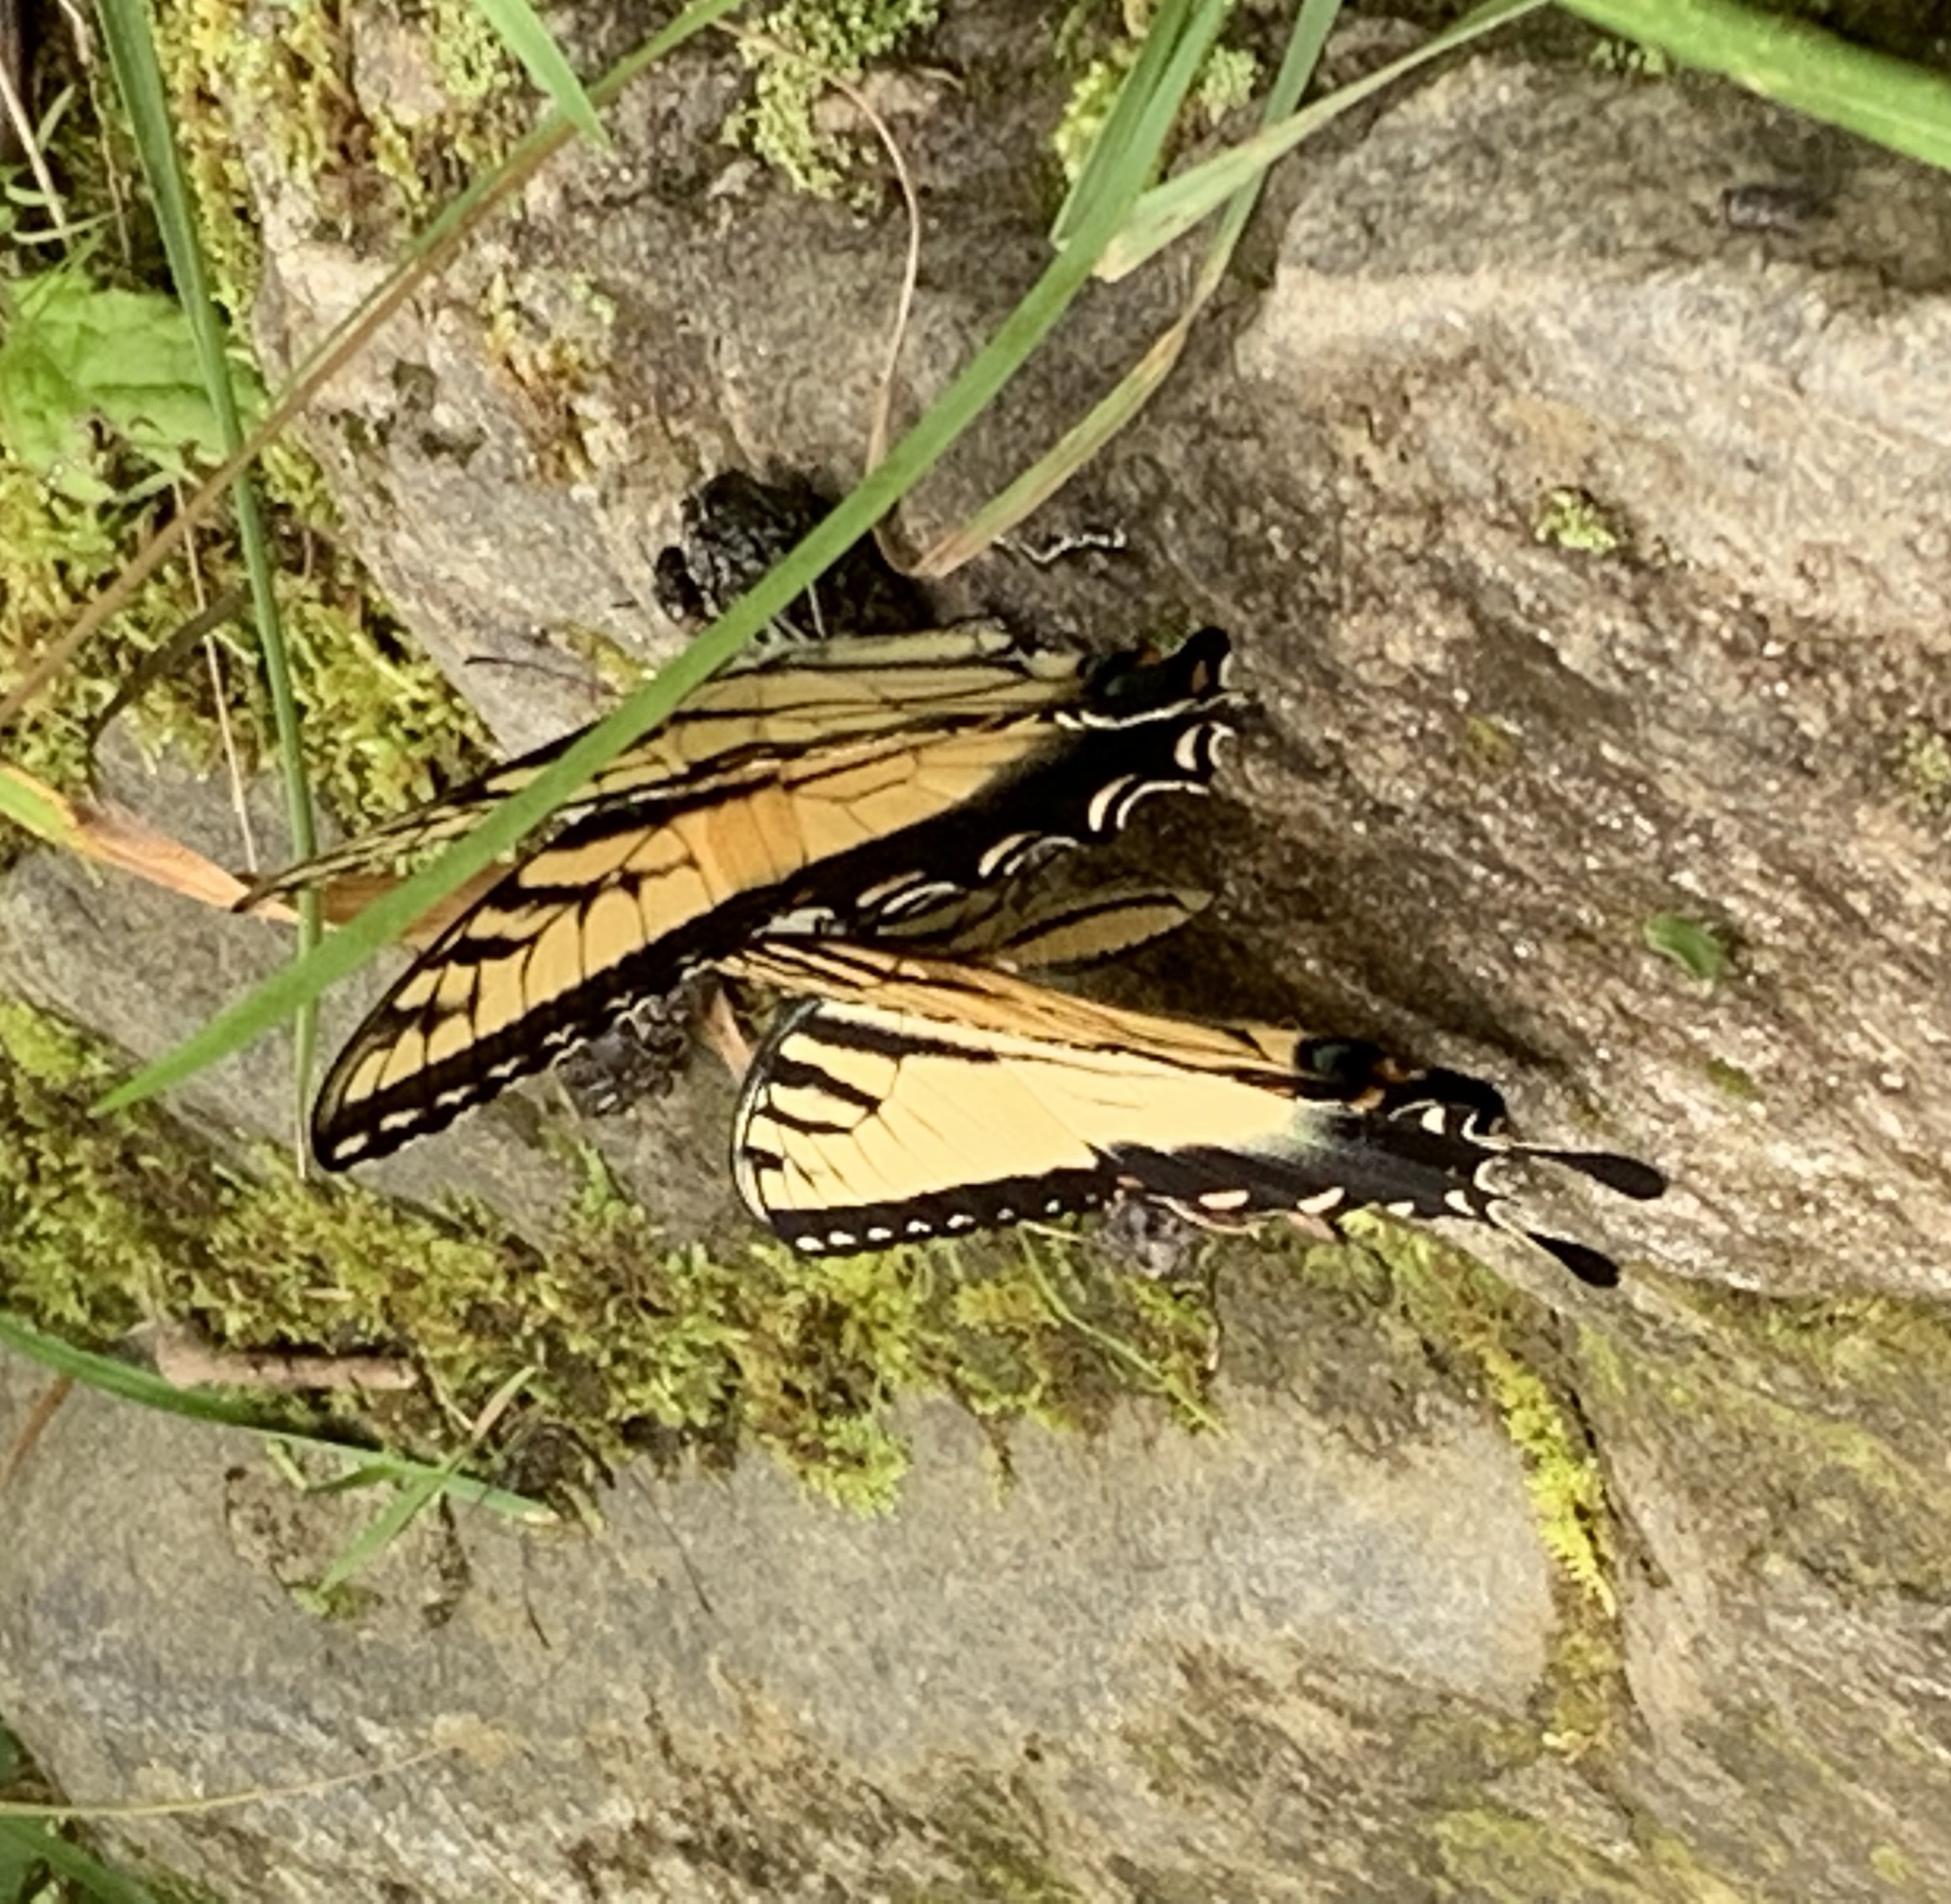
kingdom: Animalia
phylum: Arthropoda
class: Insecta
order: Lepidoptera
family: Papilionidae
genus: Papilio
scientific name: Papilio glaucus
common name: Tiger swallowtail
